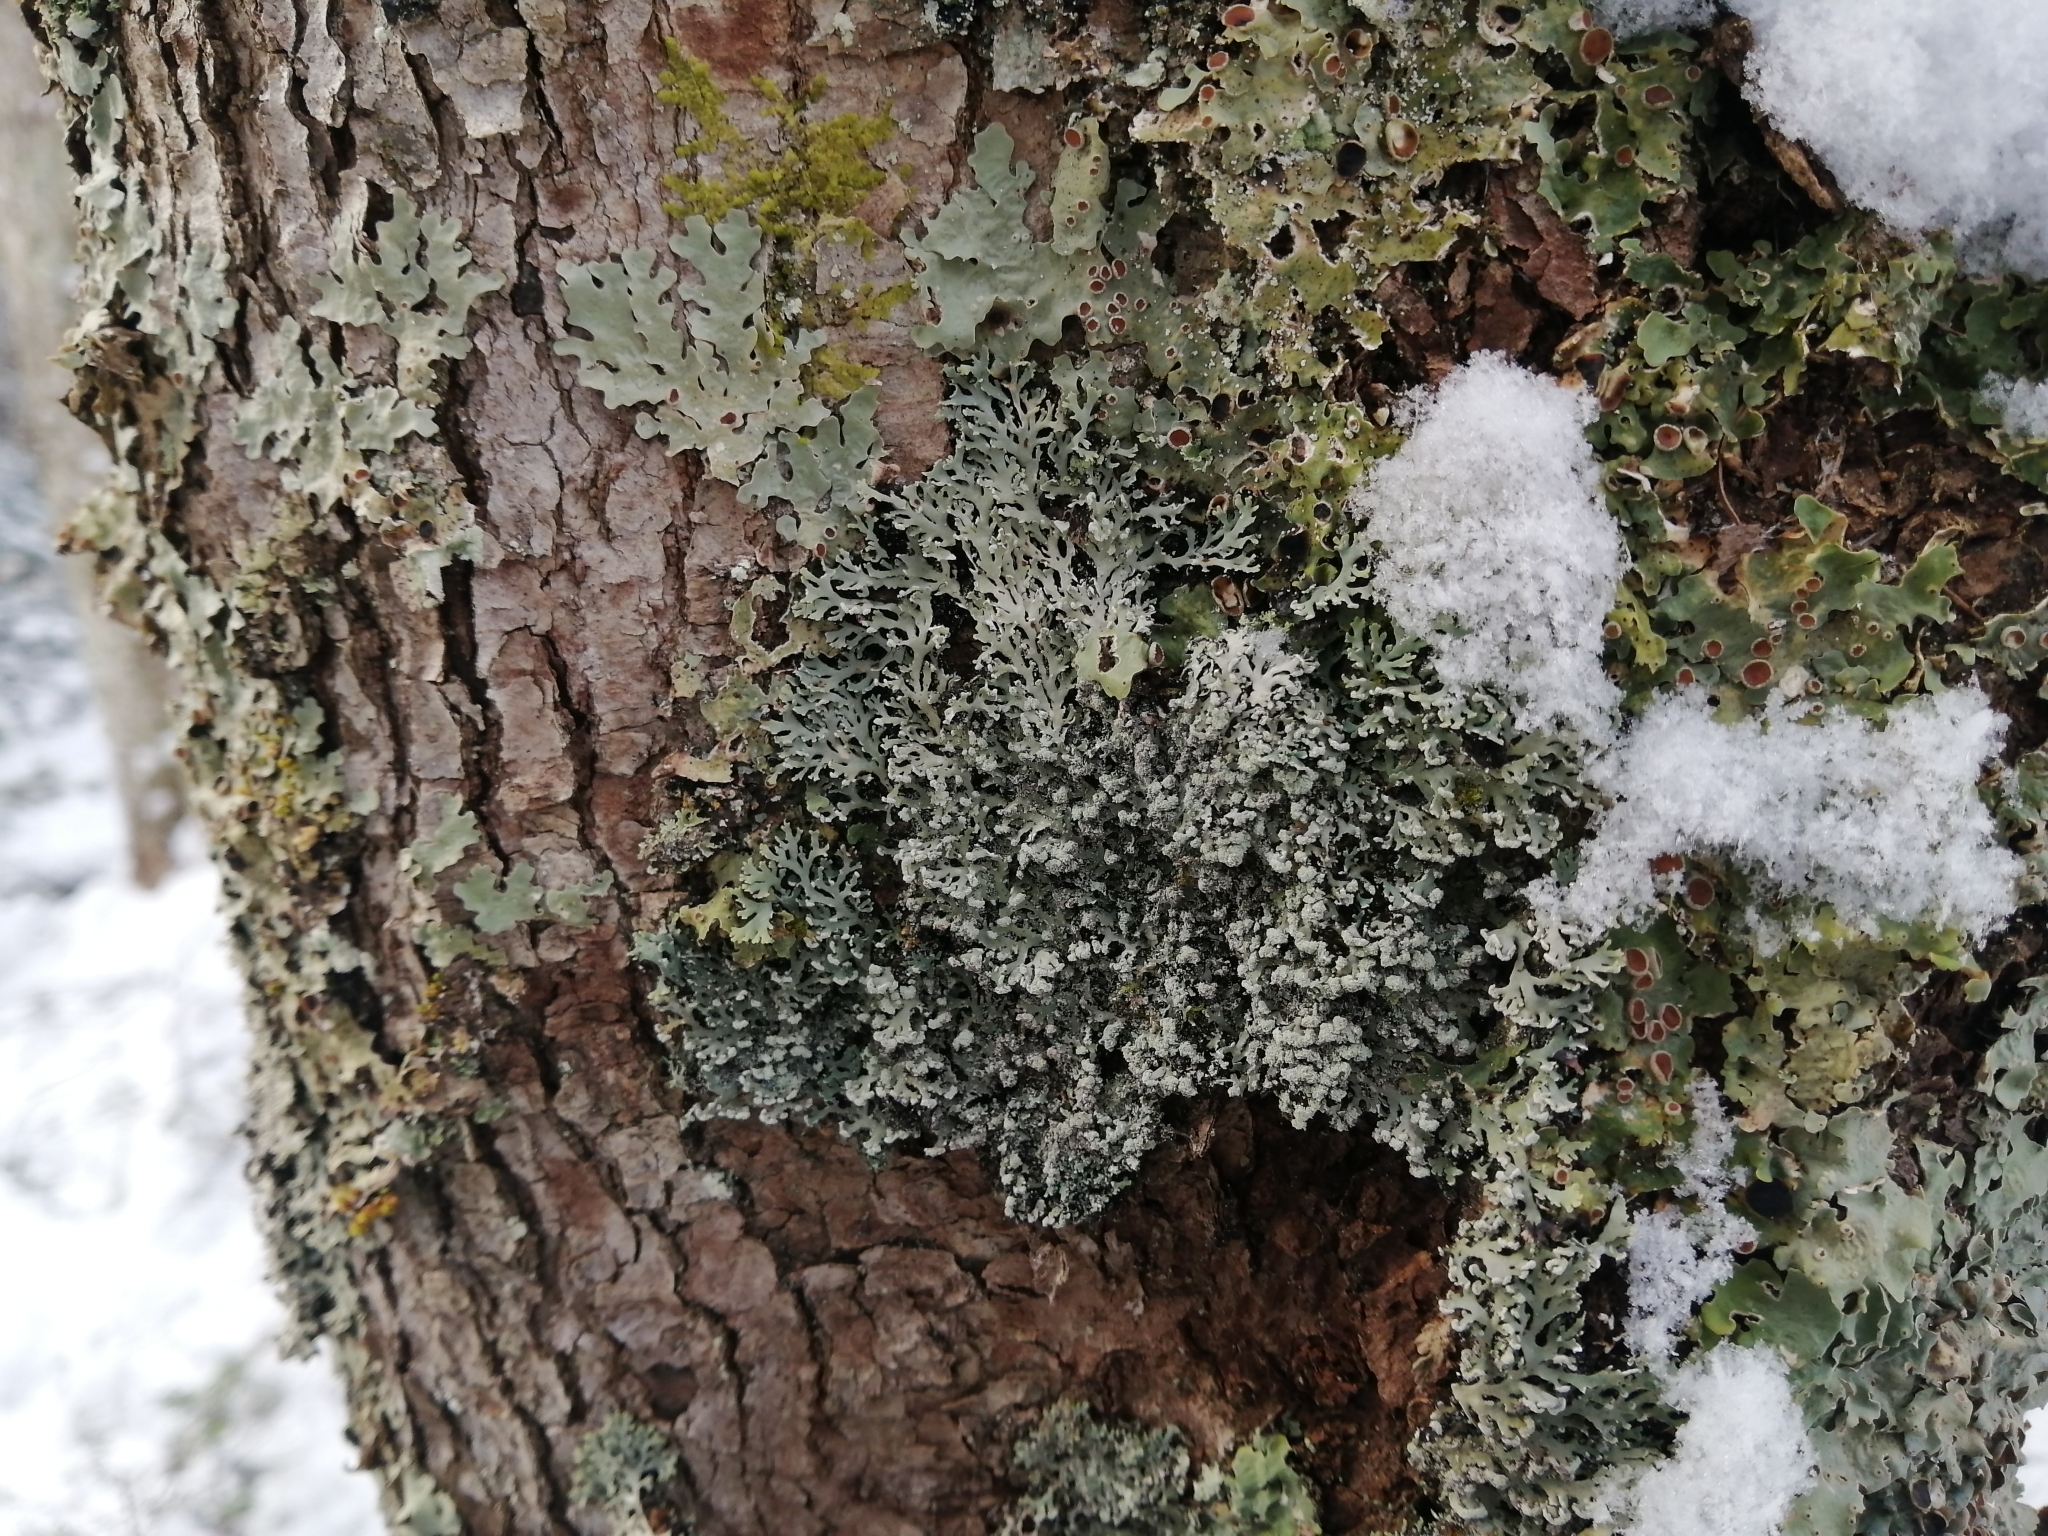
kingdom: Fungi
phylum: Ascomycota
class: Lecanoromycetes
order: Caliciales
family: Physciaceae
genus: Polyblastidium
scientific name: Polyblastidium neglectum
